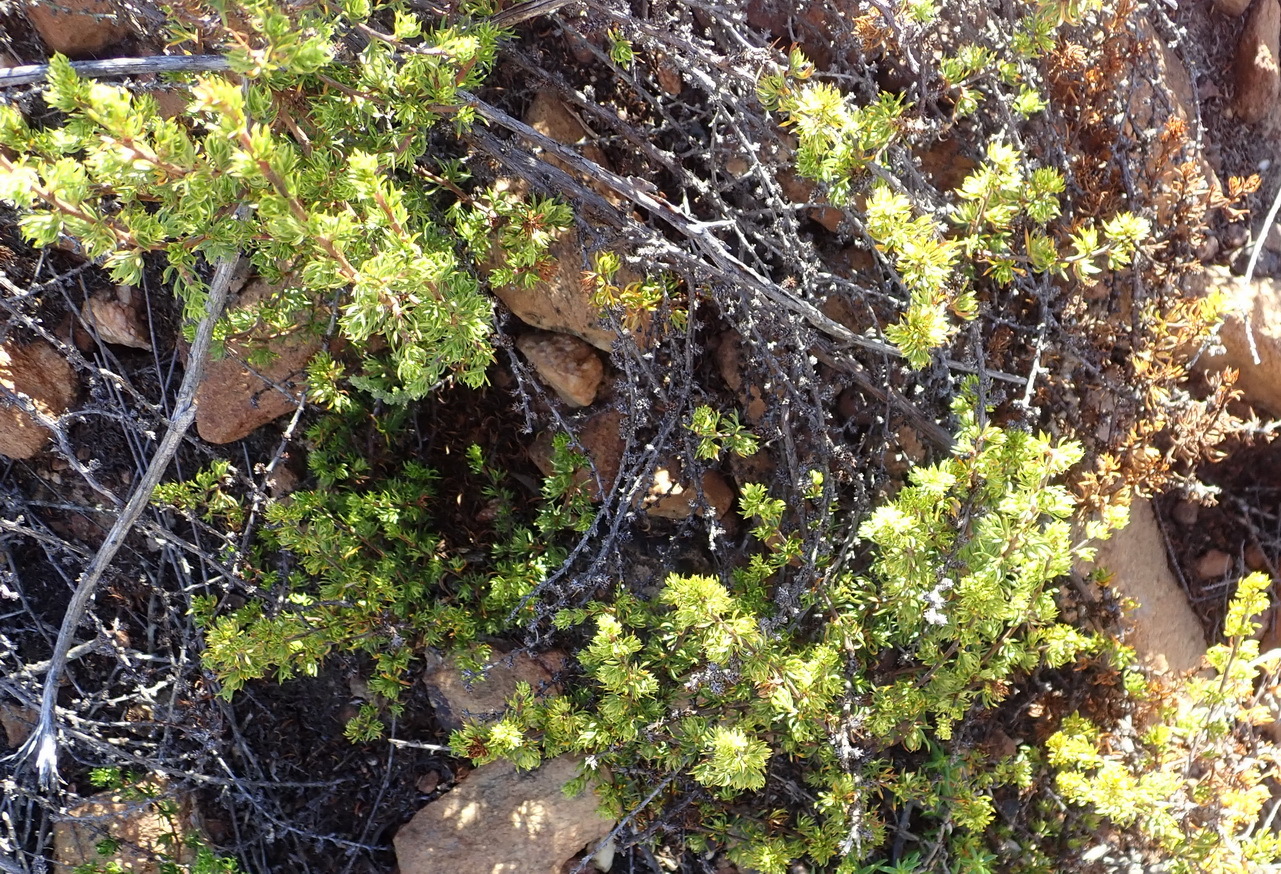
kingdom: Plantae
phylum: Tracheophyta
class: Magnoliopsida
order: Rosales
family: Rosaceae
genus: Cliffortia
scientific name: Cliffortia arcuata
